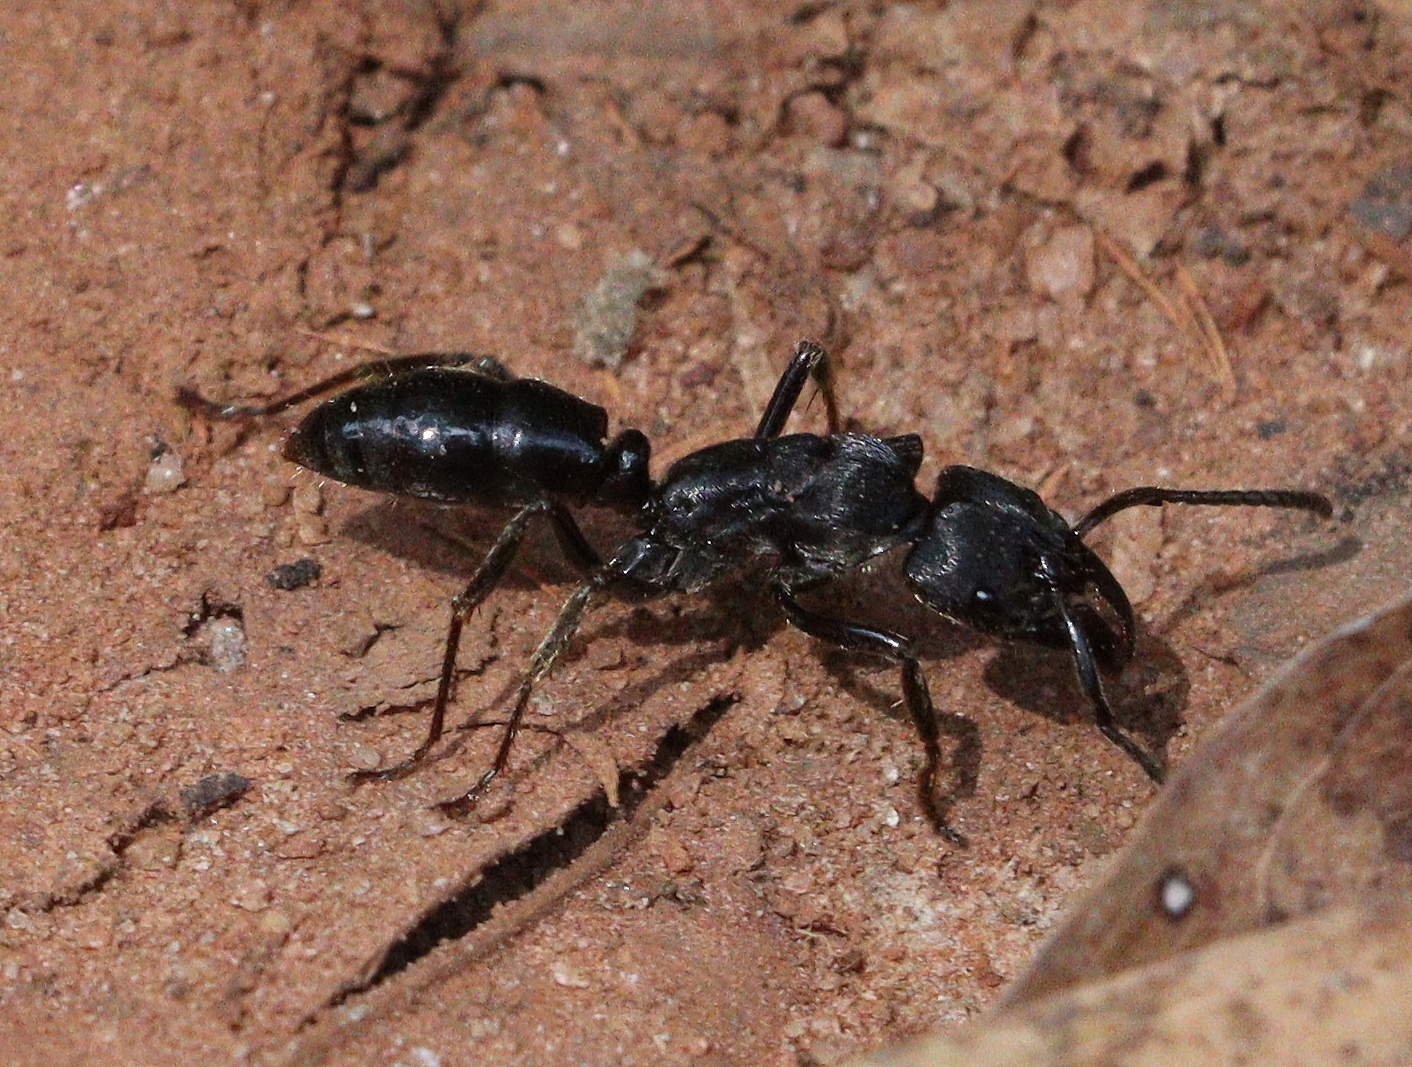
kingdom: Animalia
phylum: Arthropoda
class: Insecta
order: Hymenoptera
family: Formicidae
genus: Paltothyreus
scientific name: Paltothyreus tarsatus
